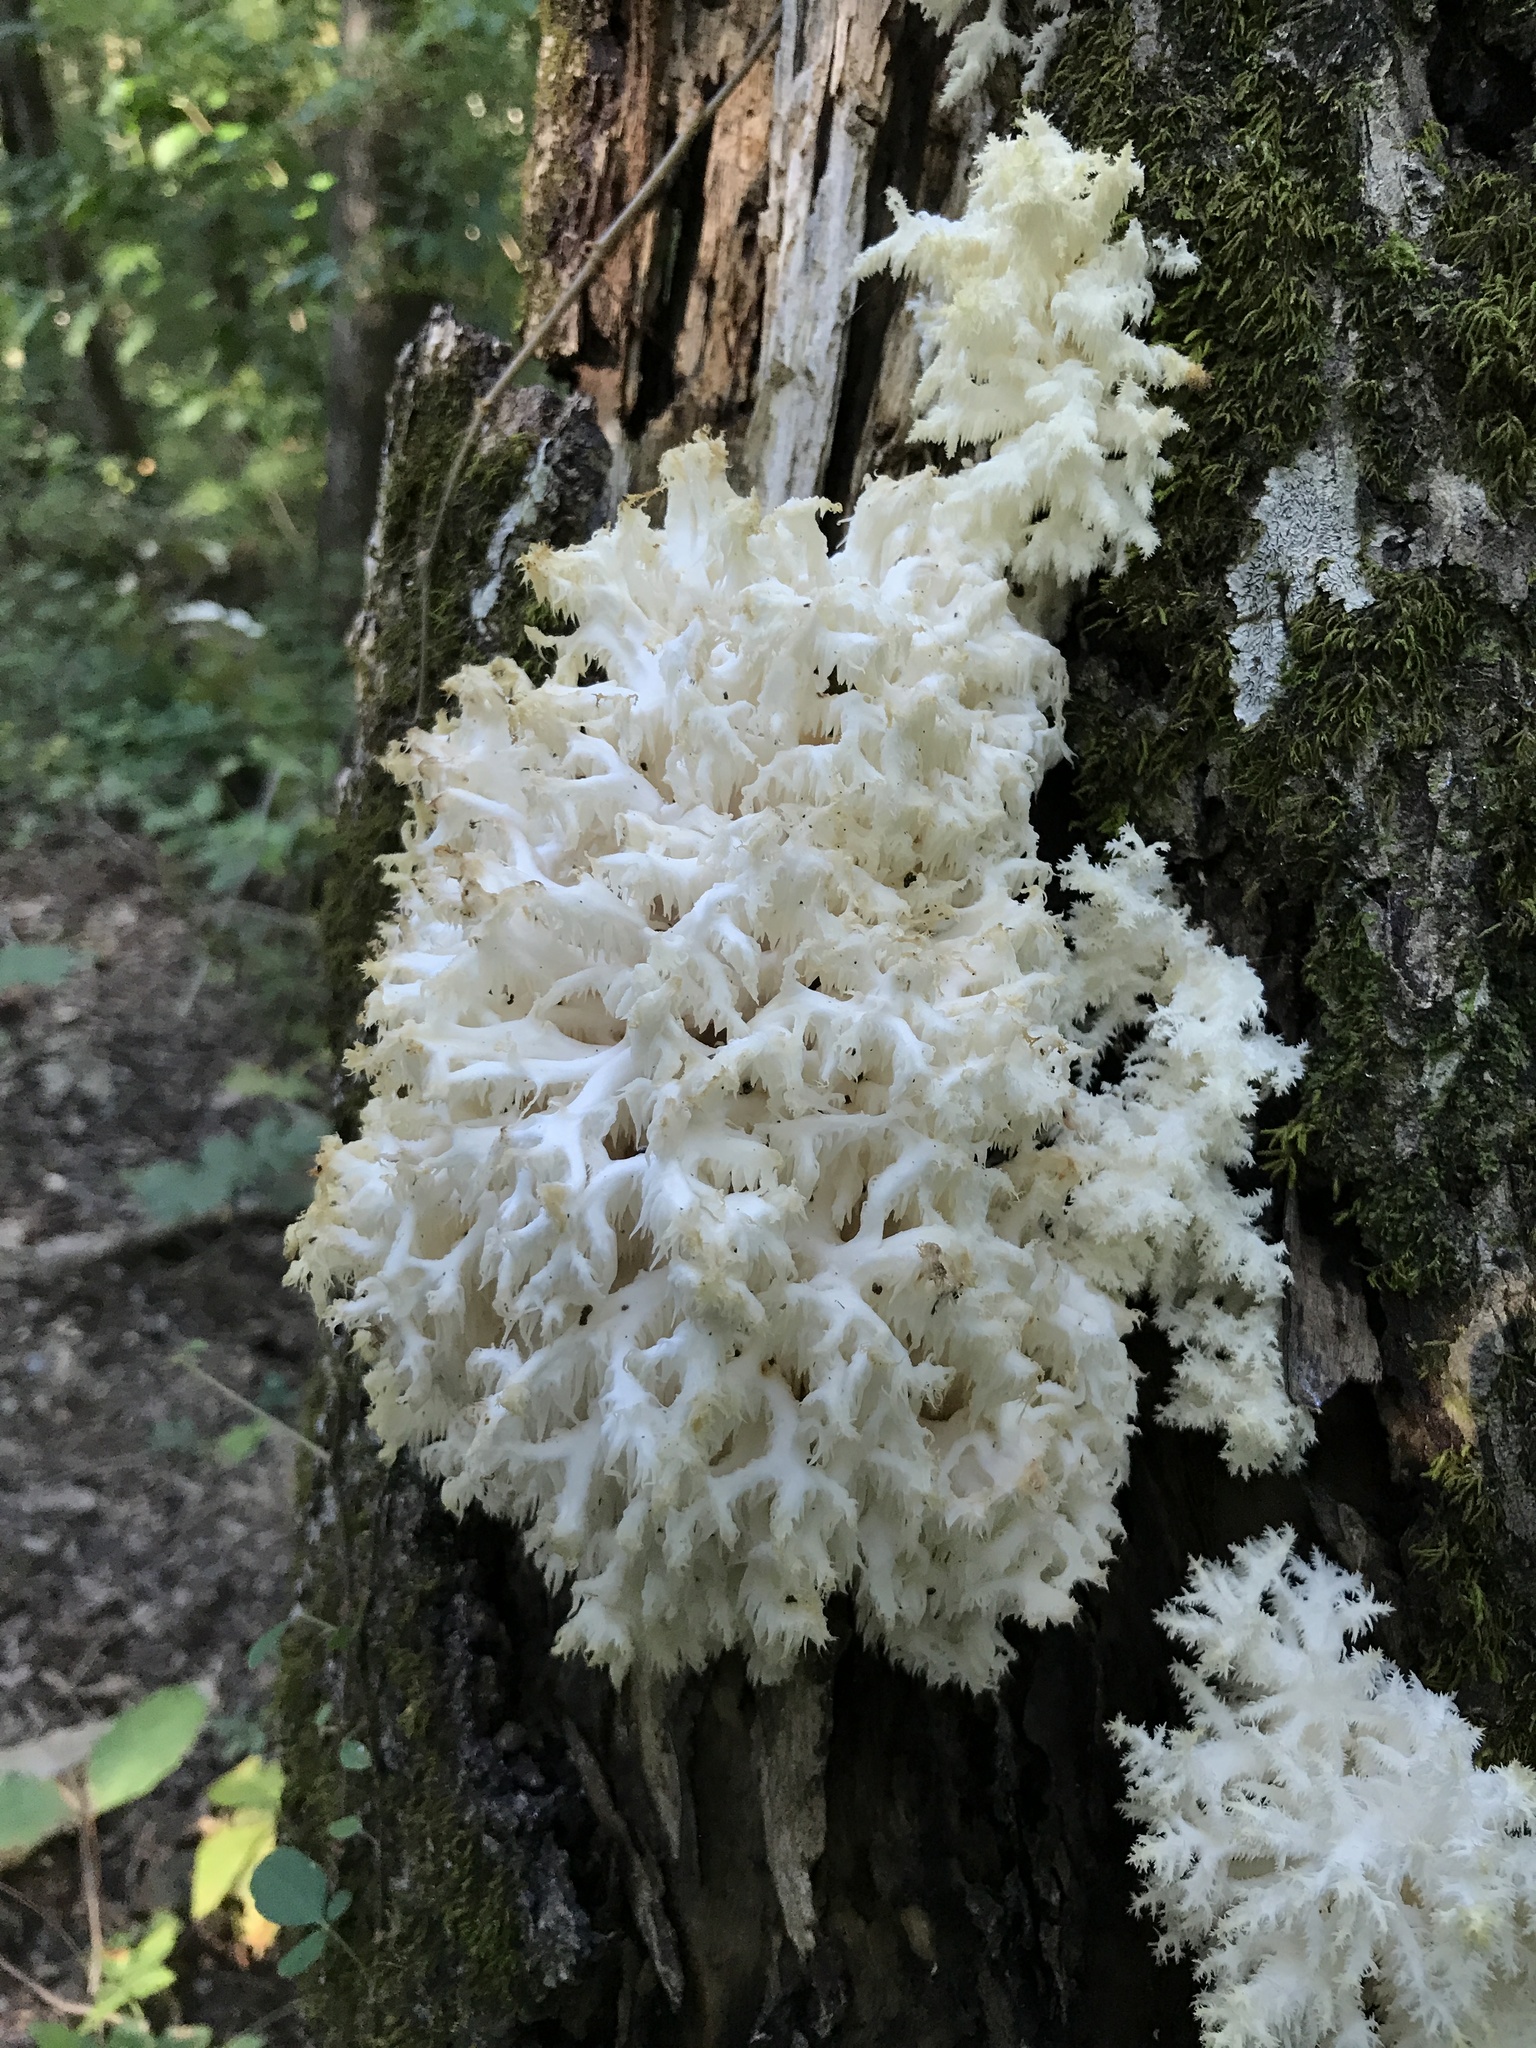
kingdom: Fungi
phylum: Basidiomycota
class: Agaricomycetes
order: Russulales
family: Hericiaceae
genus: Hericium
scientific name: Hericium coralloides
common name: Coral tooth
